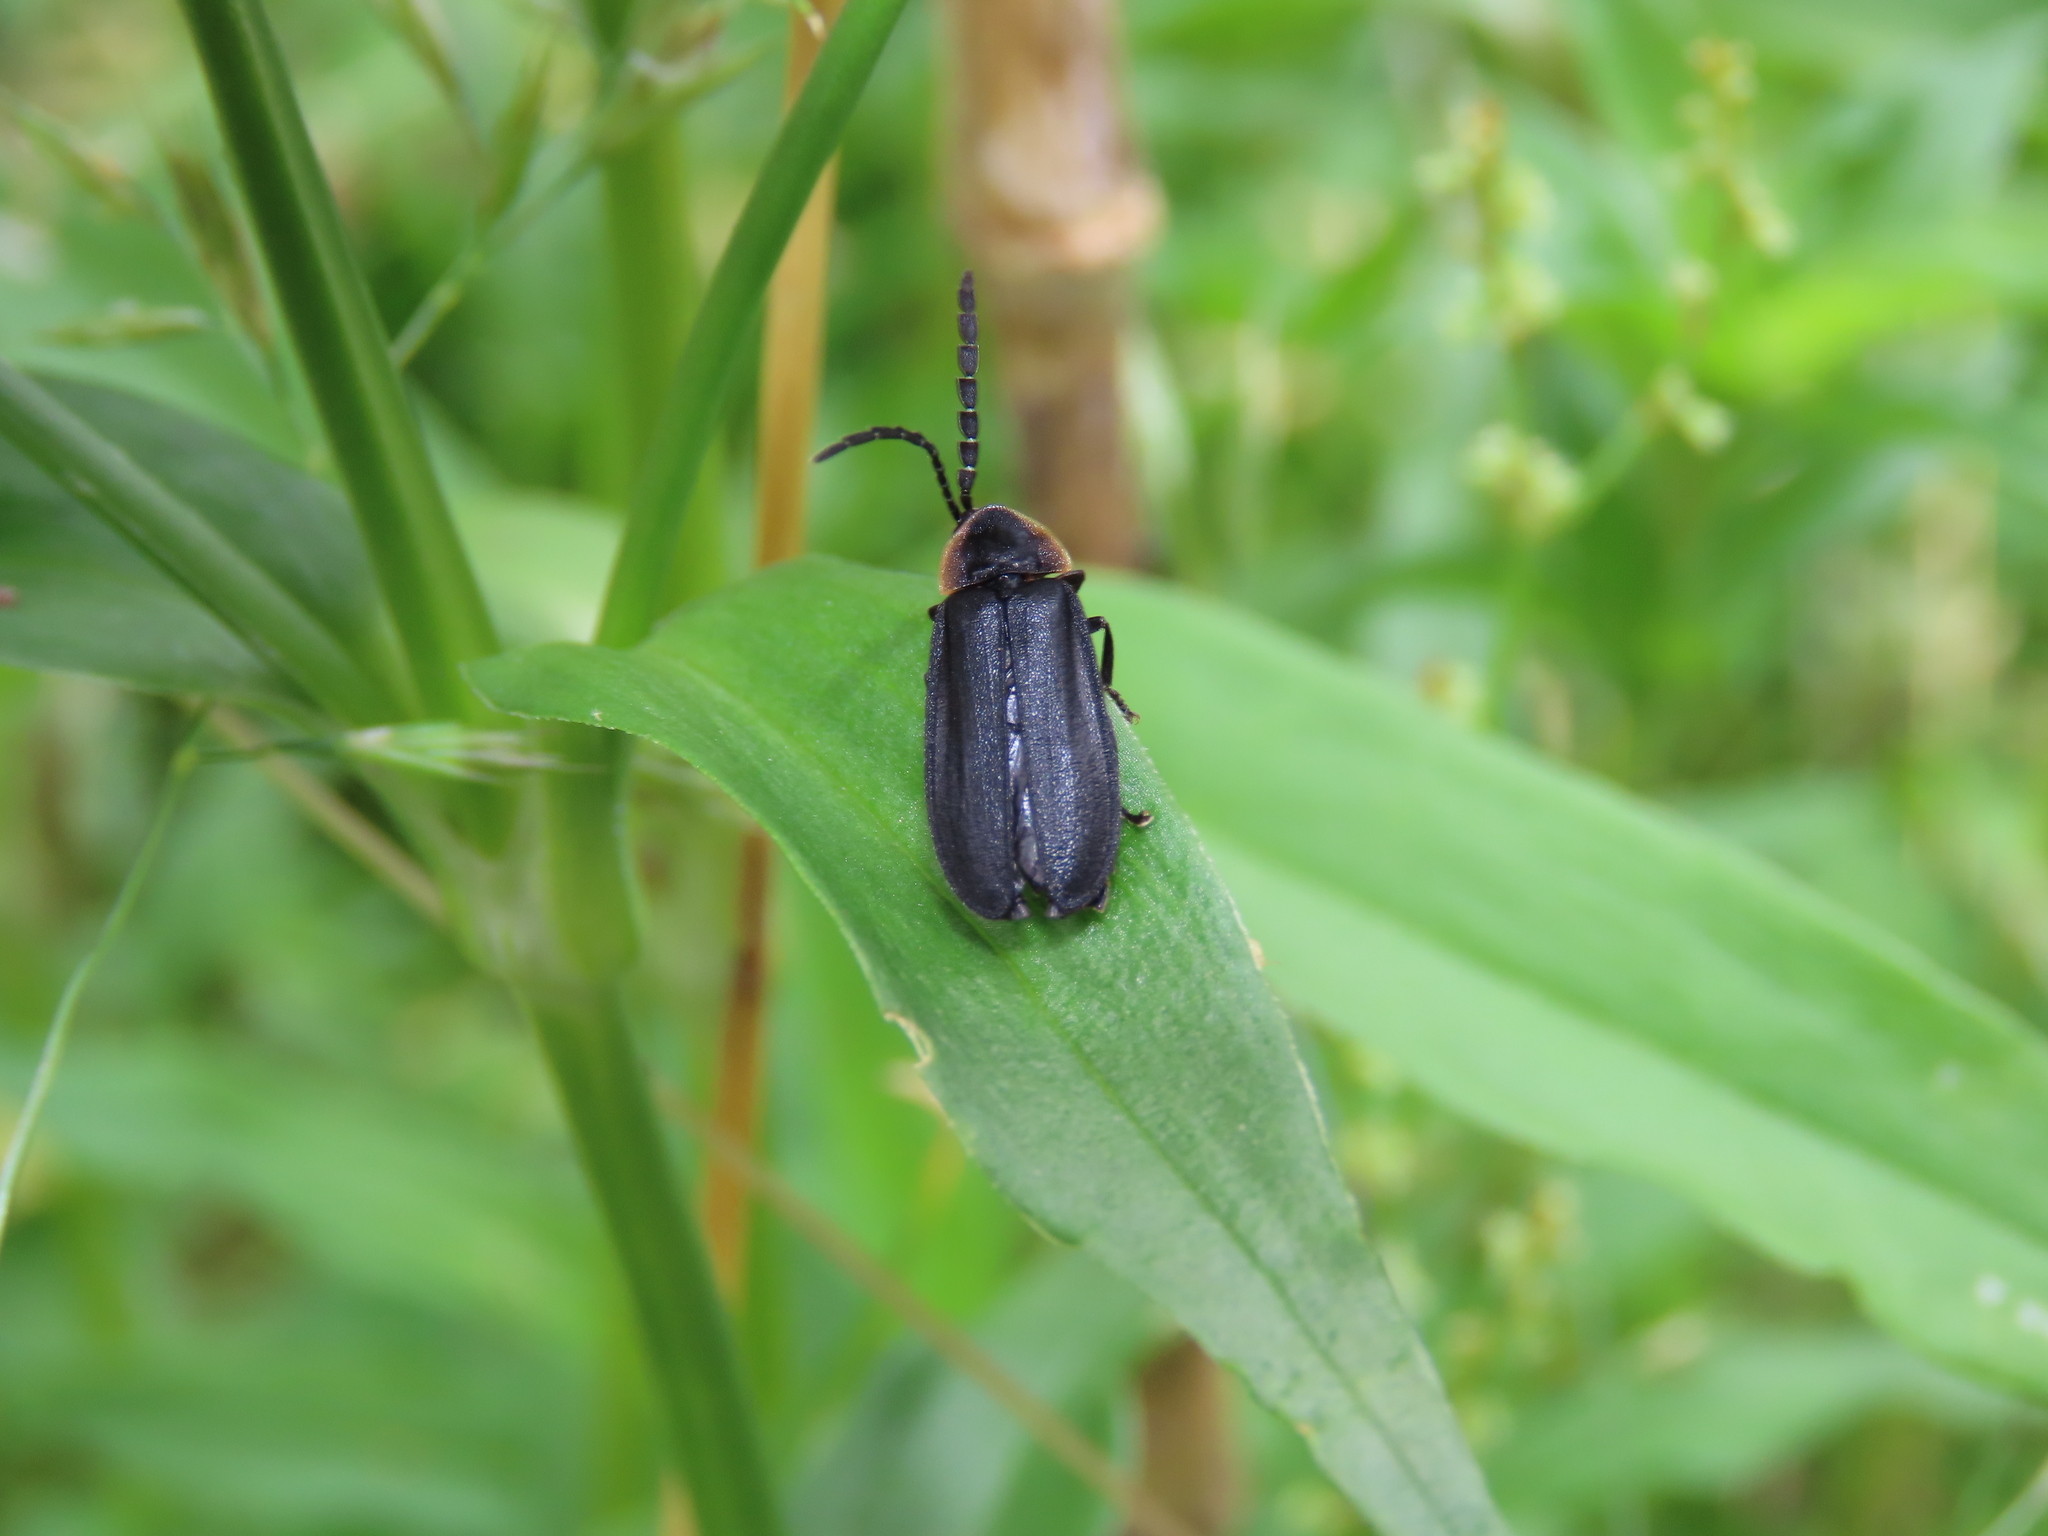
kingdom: Animalia
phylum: Arthropoda
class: Insecta
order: Coleoptera
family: Lampyridae
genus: Lucidota
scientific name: Lucidota atra
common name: Black firefly
